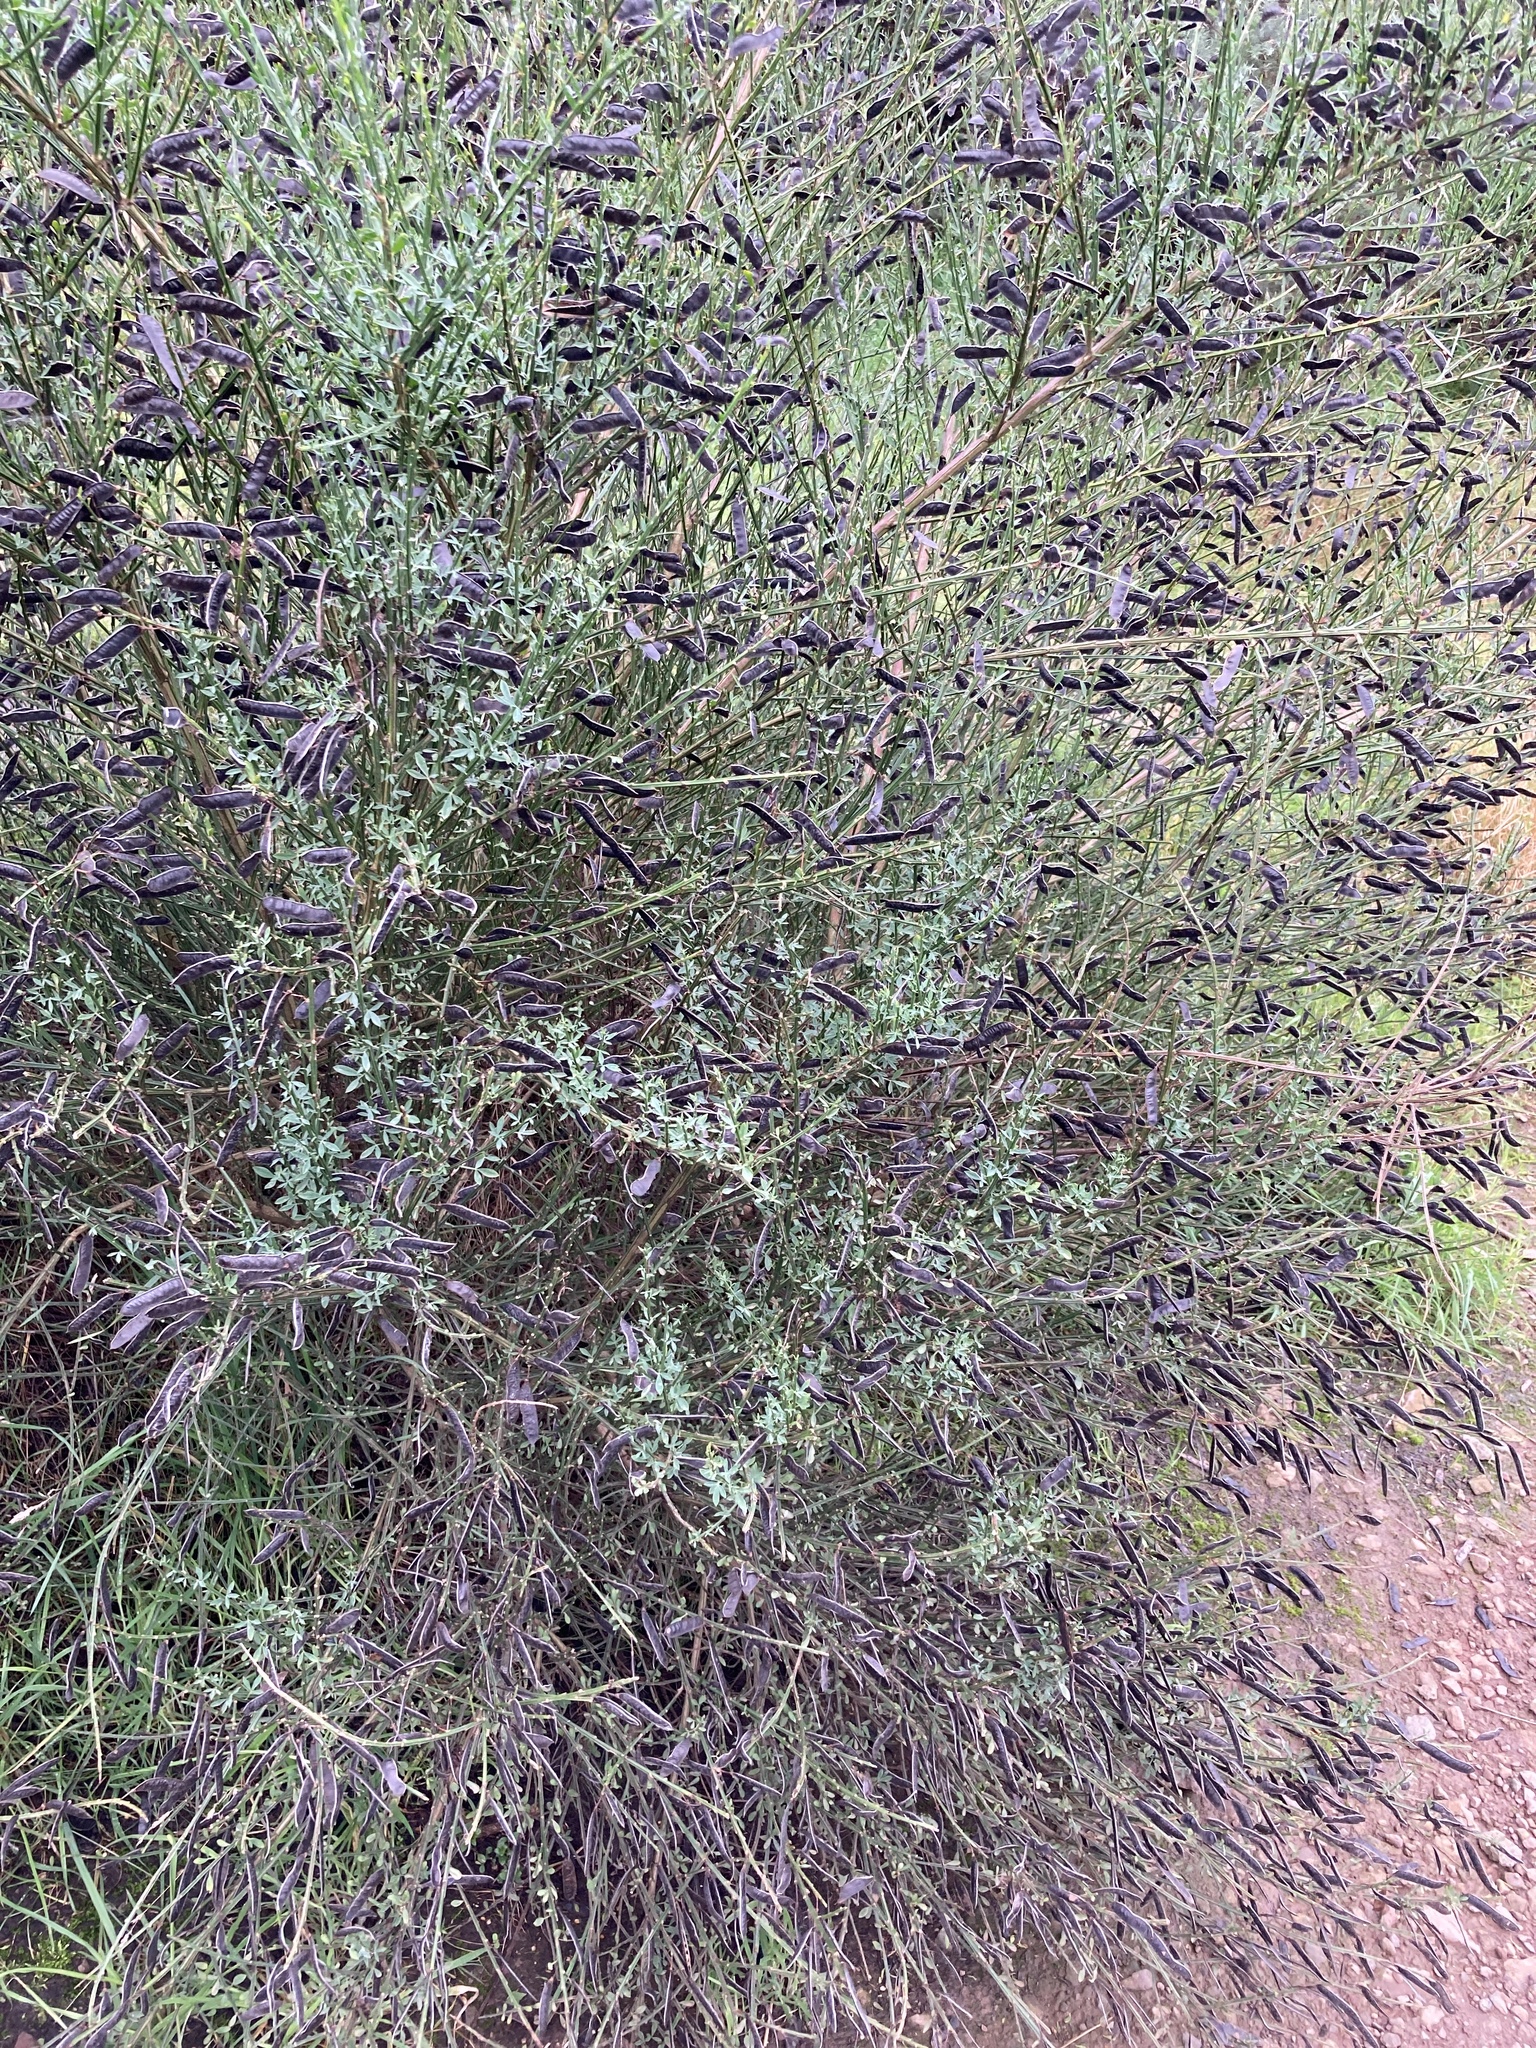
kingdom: Plantae
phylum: Tracheophyta
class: Magnoliopsida
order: Fabales
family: Fabaceae
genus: Cytisus
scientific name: Cytisus scoparius
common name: Scotch broom
